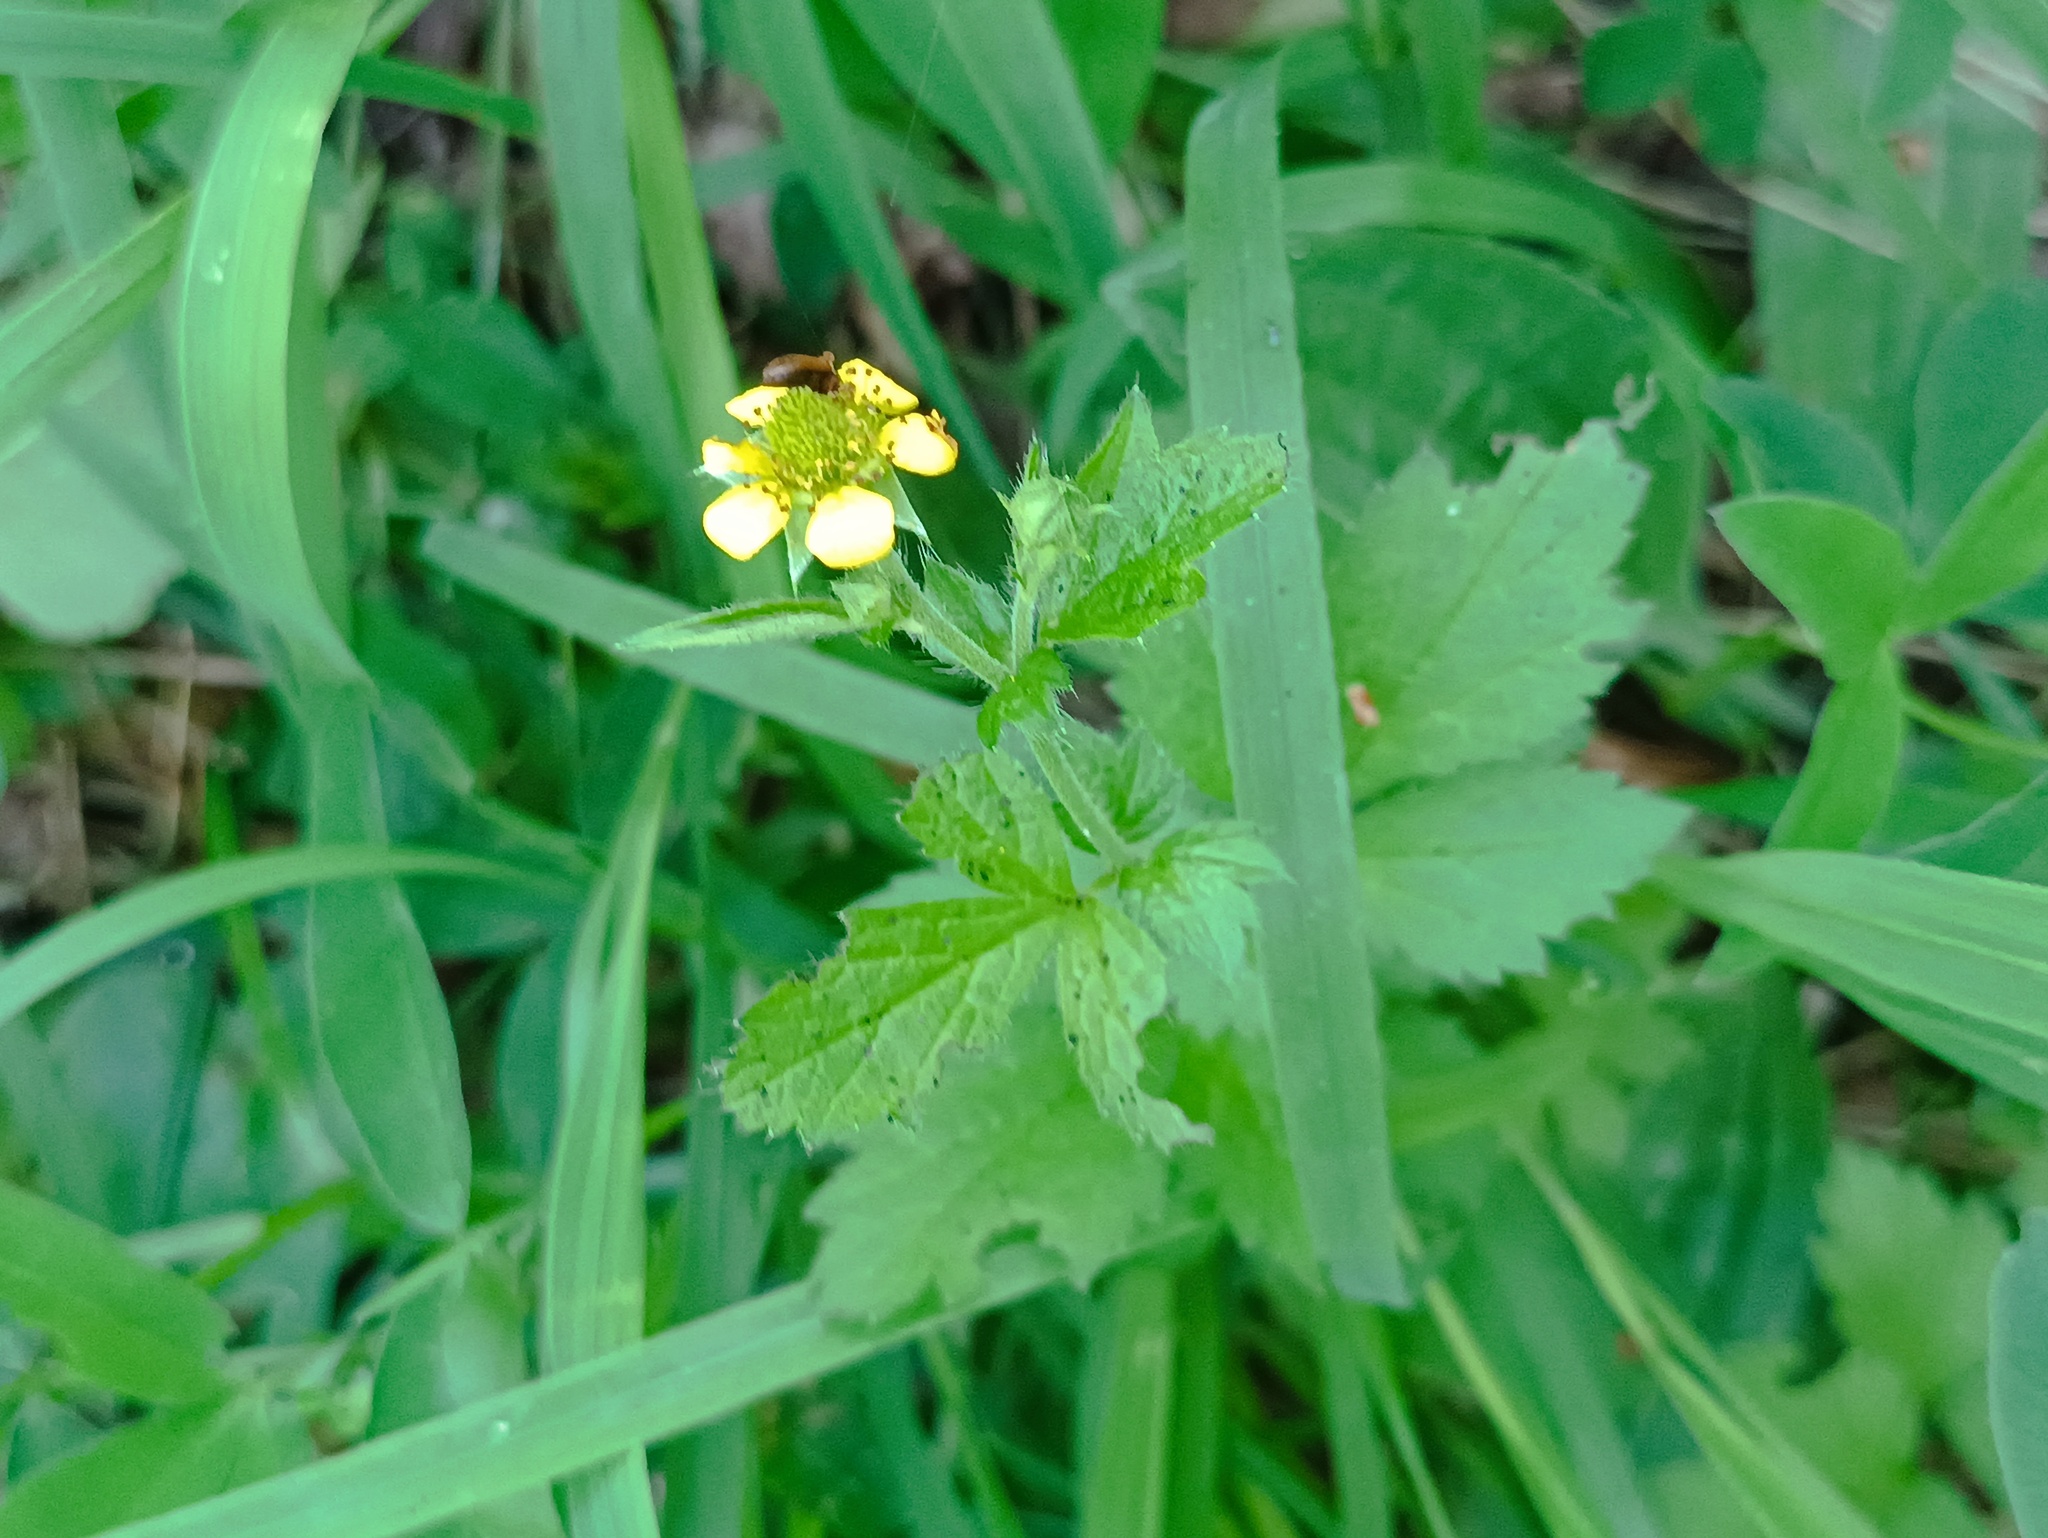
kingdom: Plantae
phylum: Tracheophyta
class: Magnoliopsida
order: Rosales
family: Rosaceae
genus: Geum
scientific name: Geum urbanum
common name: Wood avens
